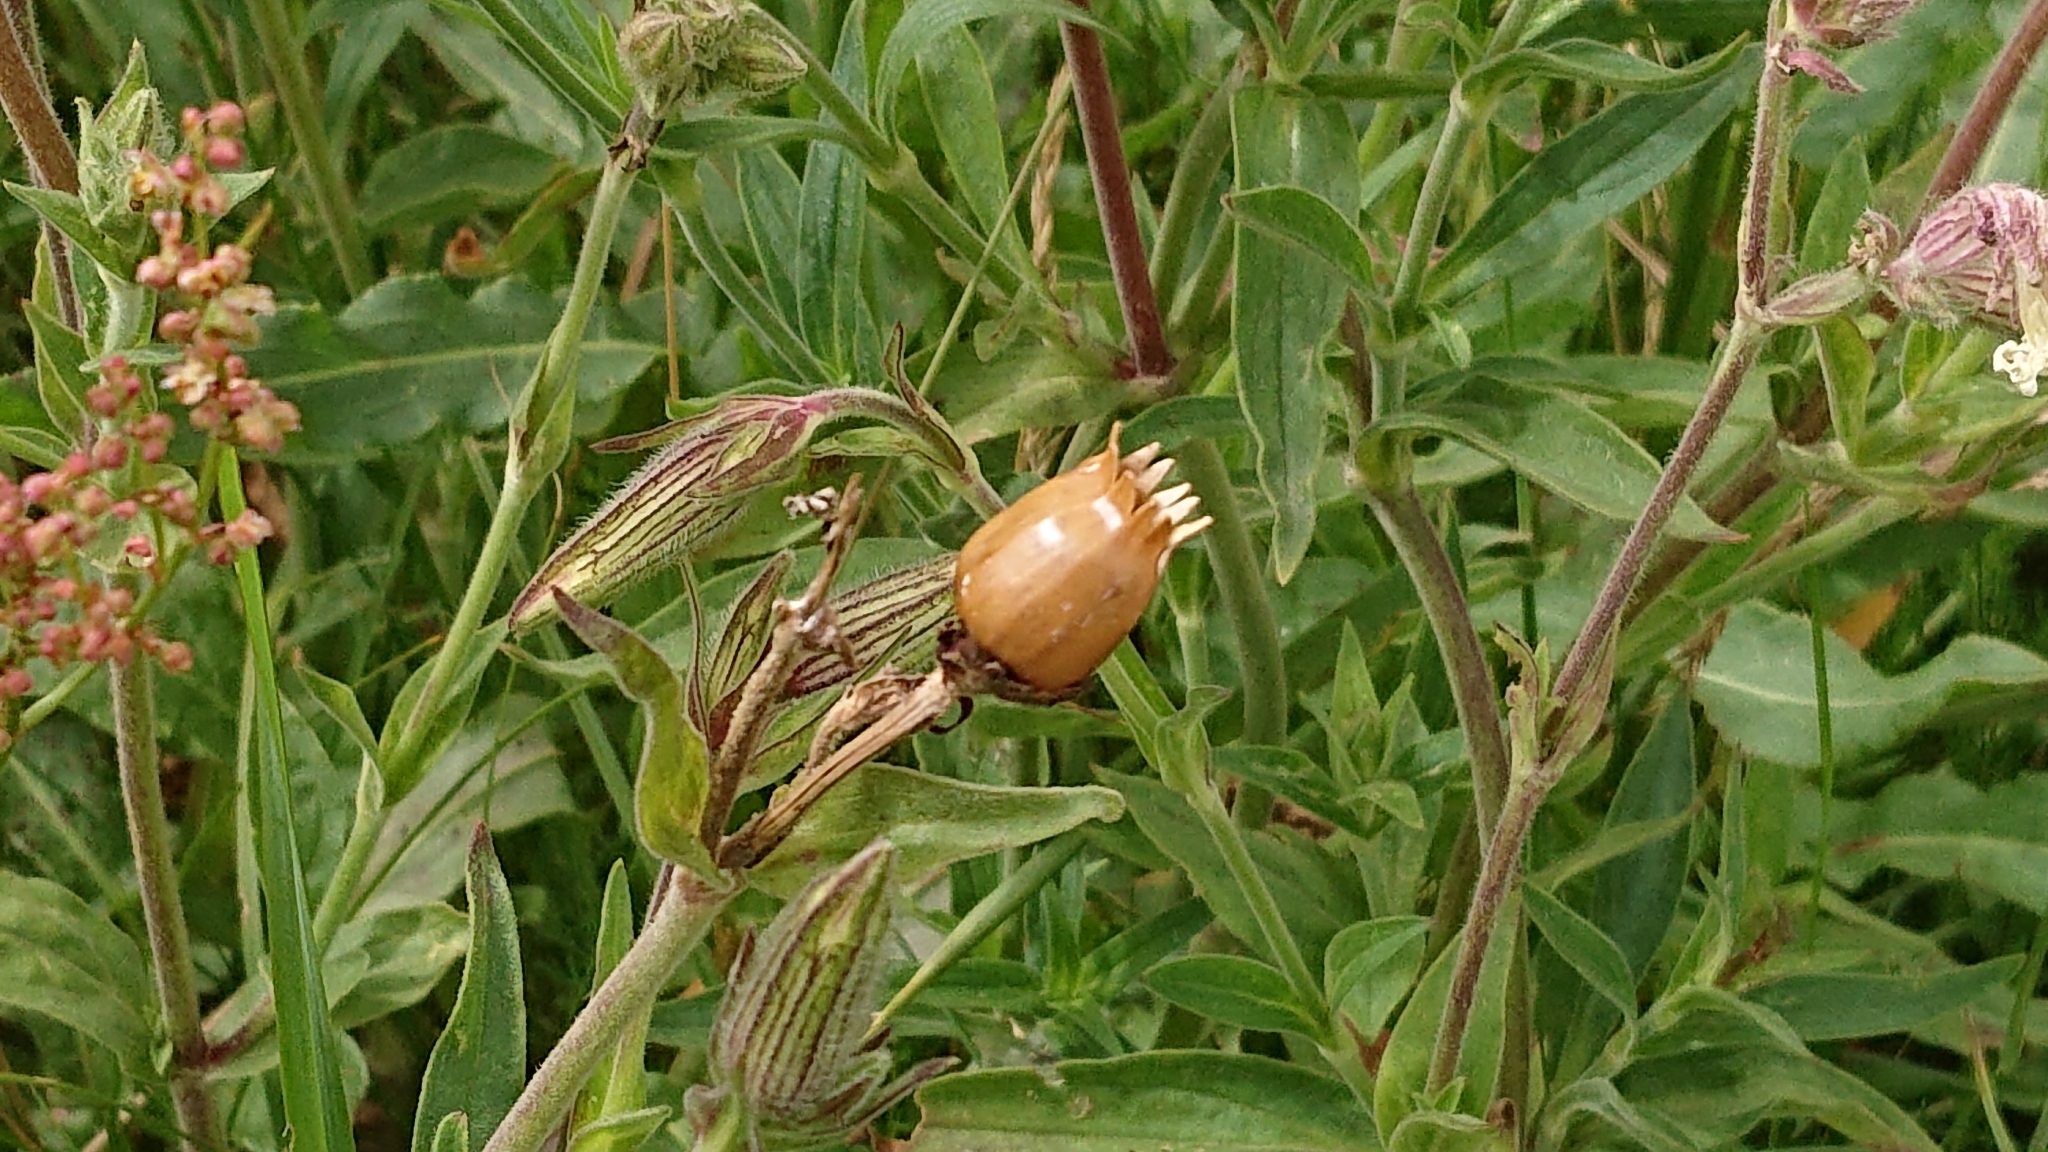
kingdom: Plantae
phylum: Tracheophyta
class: Magnoliopsida
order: Caryophyllales
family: Caryophyllaceae
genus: Silene
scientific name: Silene latifolia
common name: White campion
